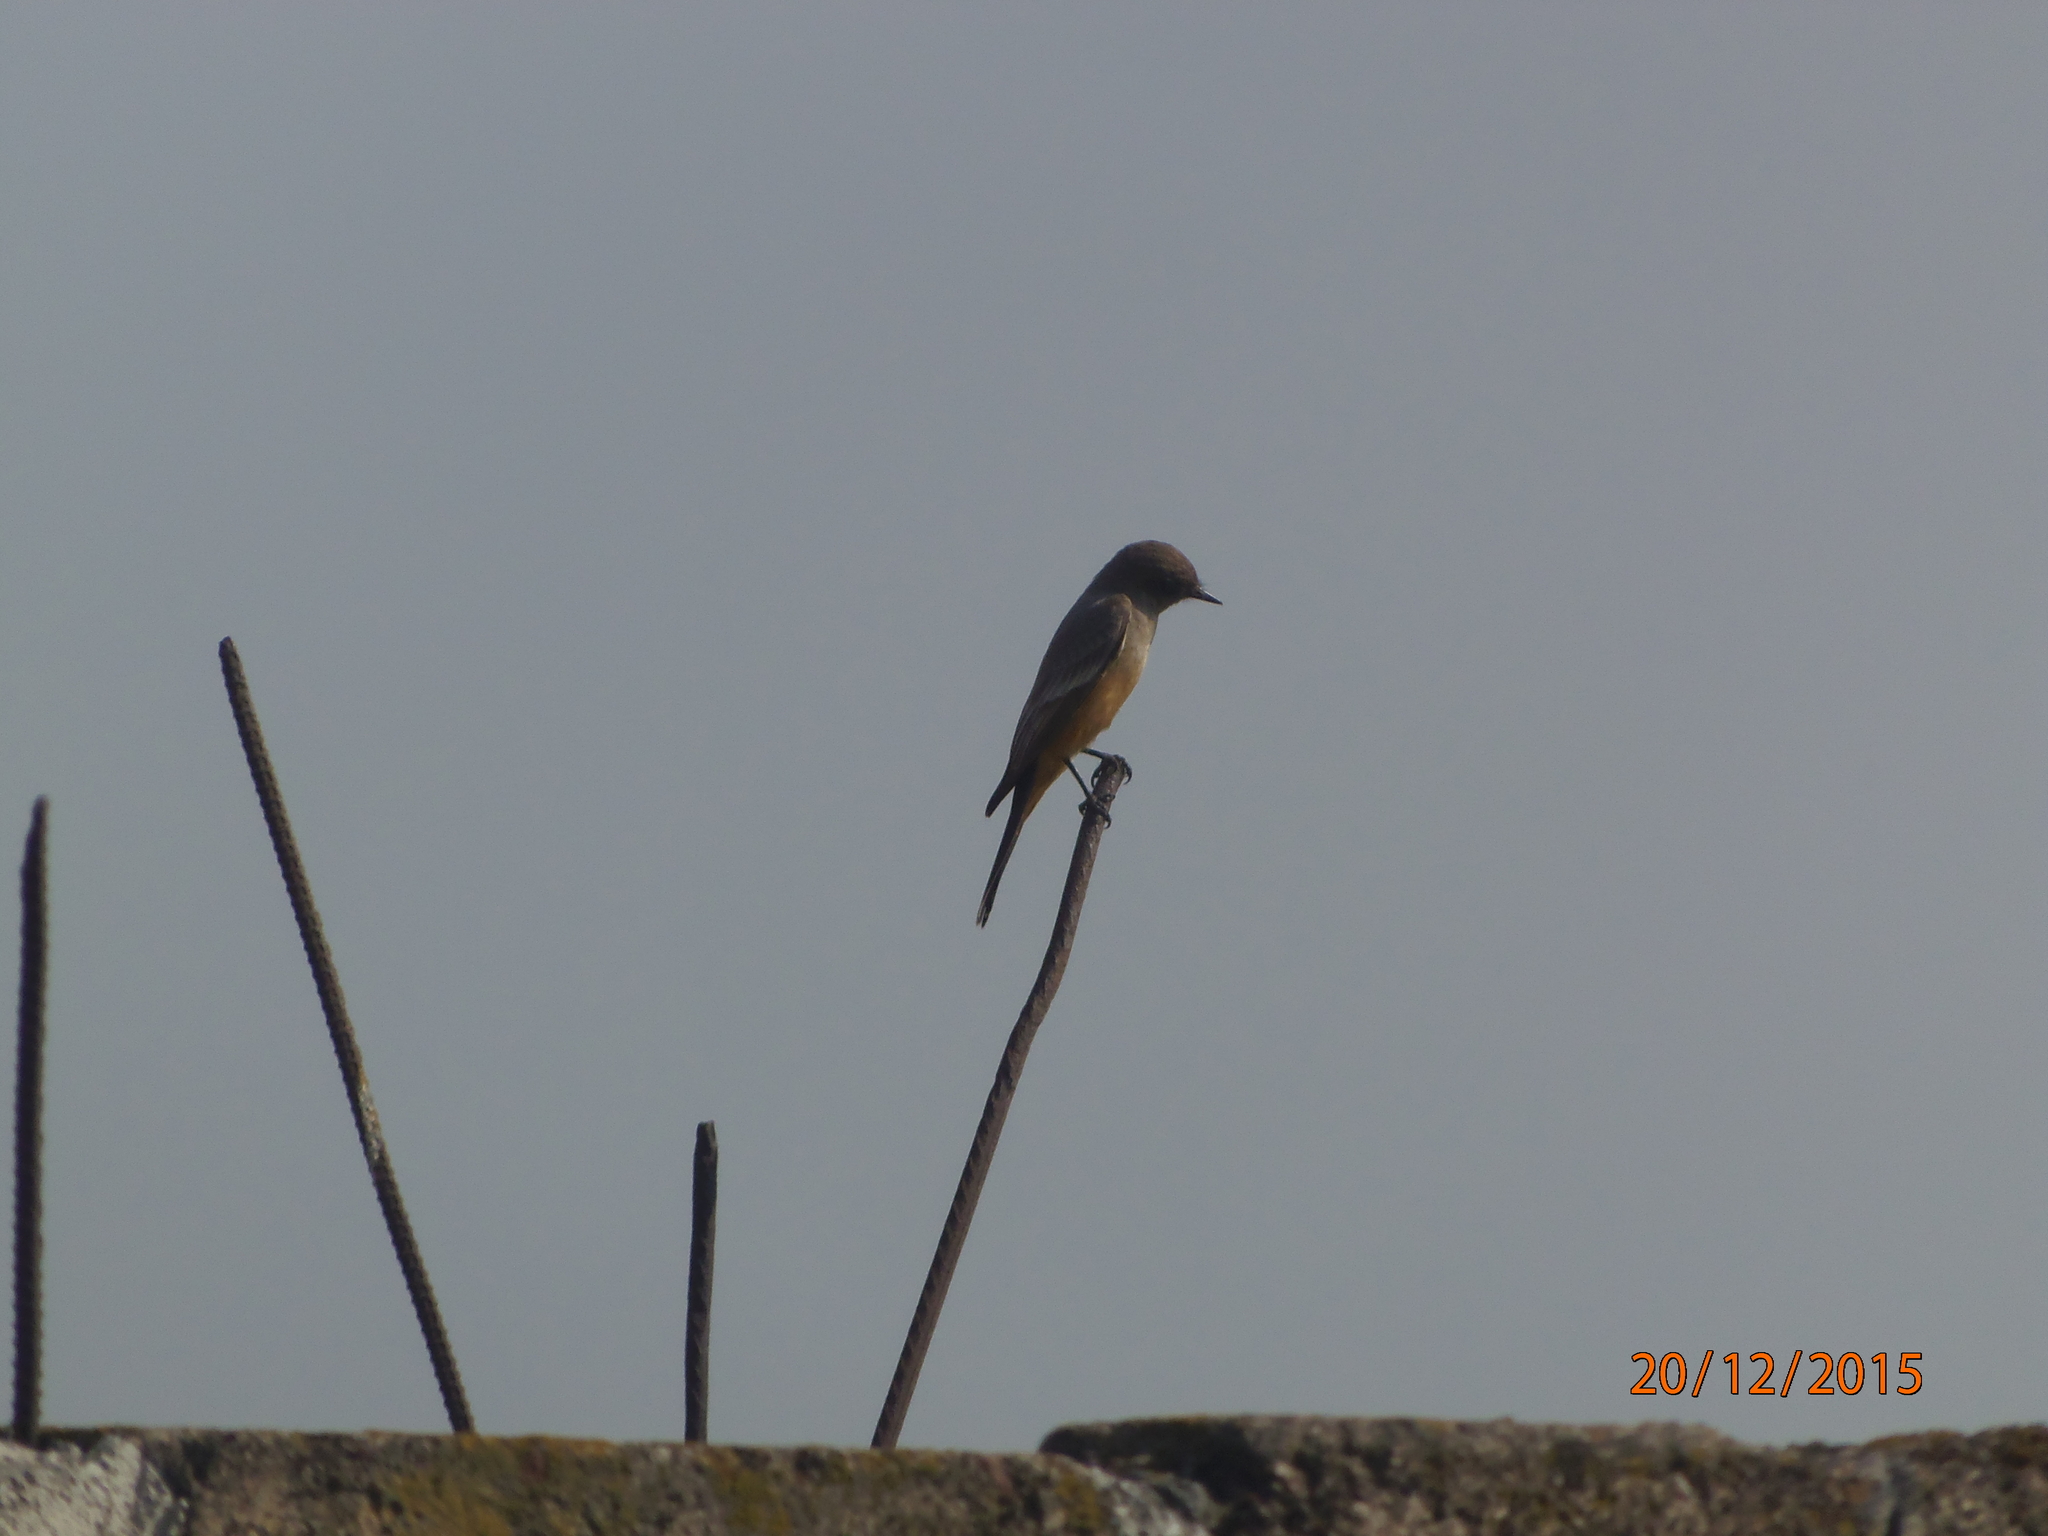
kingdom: Animalia
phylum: Chordata
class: Aves
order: Passeriformes
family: Tyrannidae
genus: Sayornis
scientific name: Sayornis saya
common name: Say's phoebe
